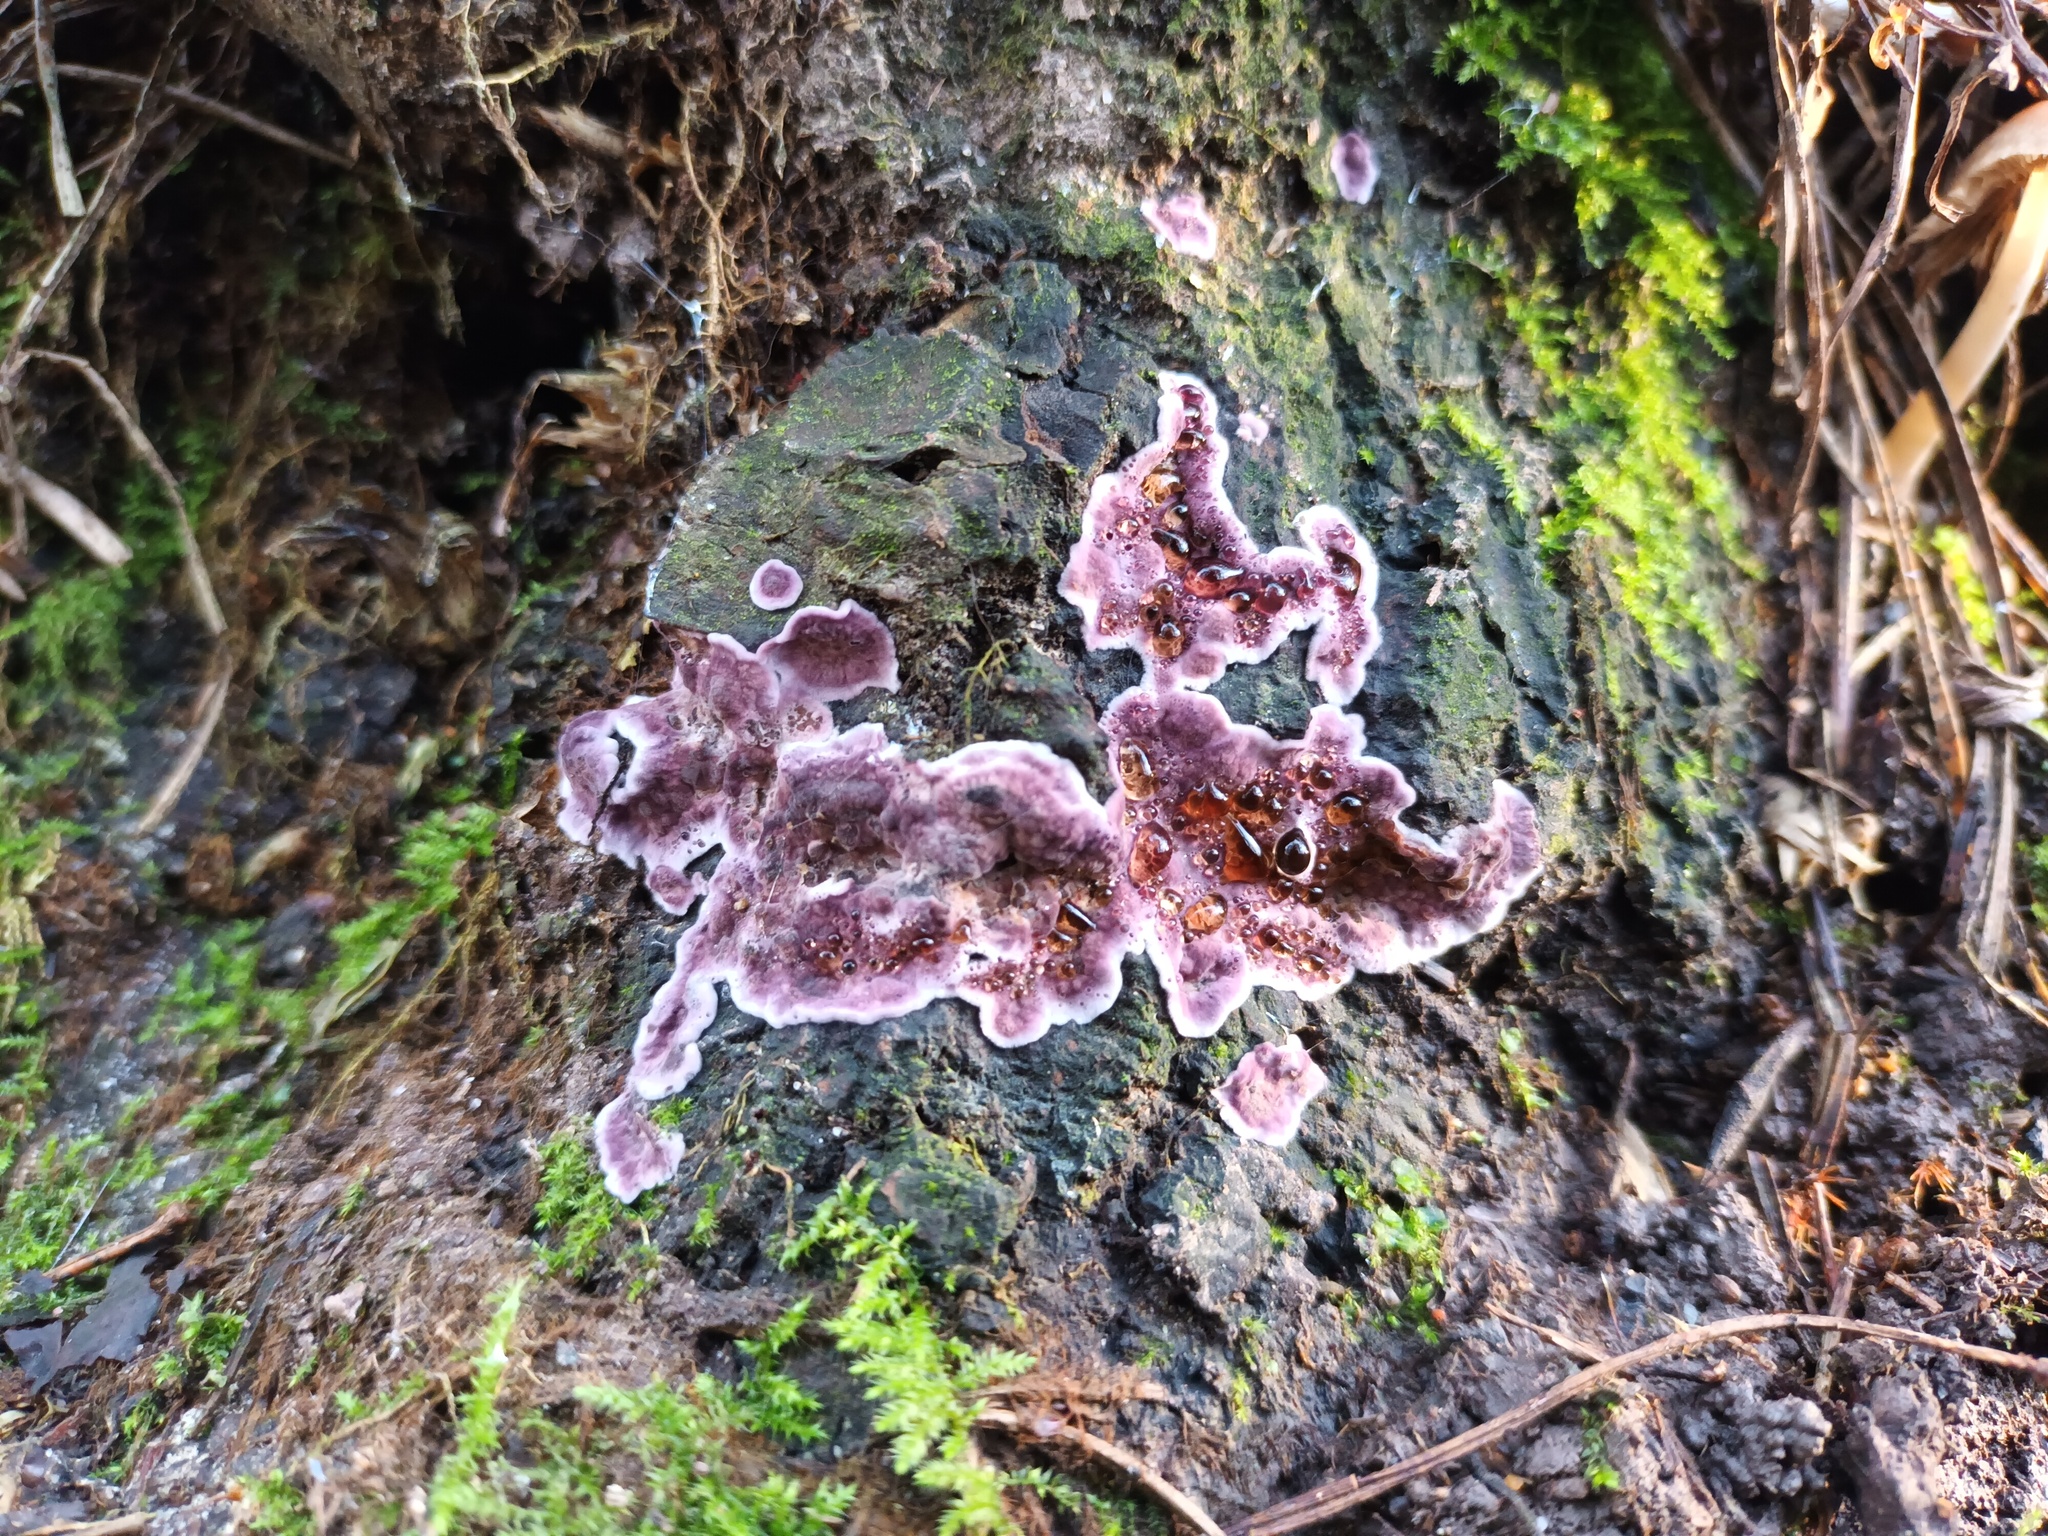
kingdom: Fungi
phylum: Basidiomycota
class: Agaricomycetes
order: Agaricales
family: Cyphellaceae
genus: Chondrostereum
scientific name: Chondrostereum purpureum
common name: Silver leaf disease
